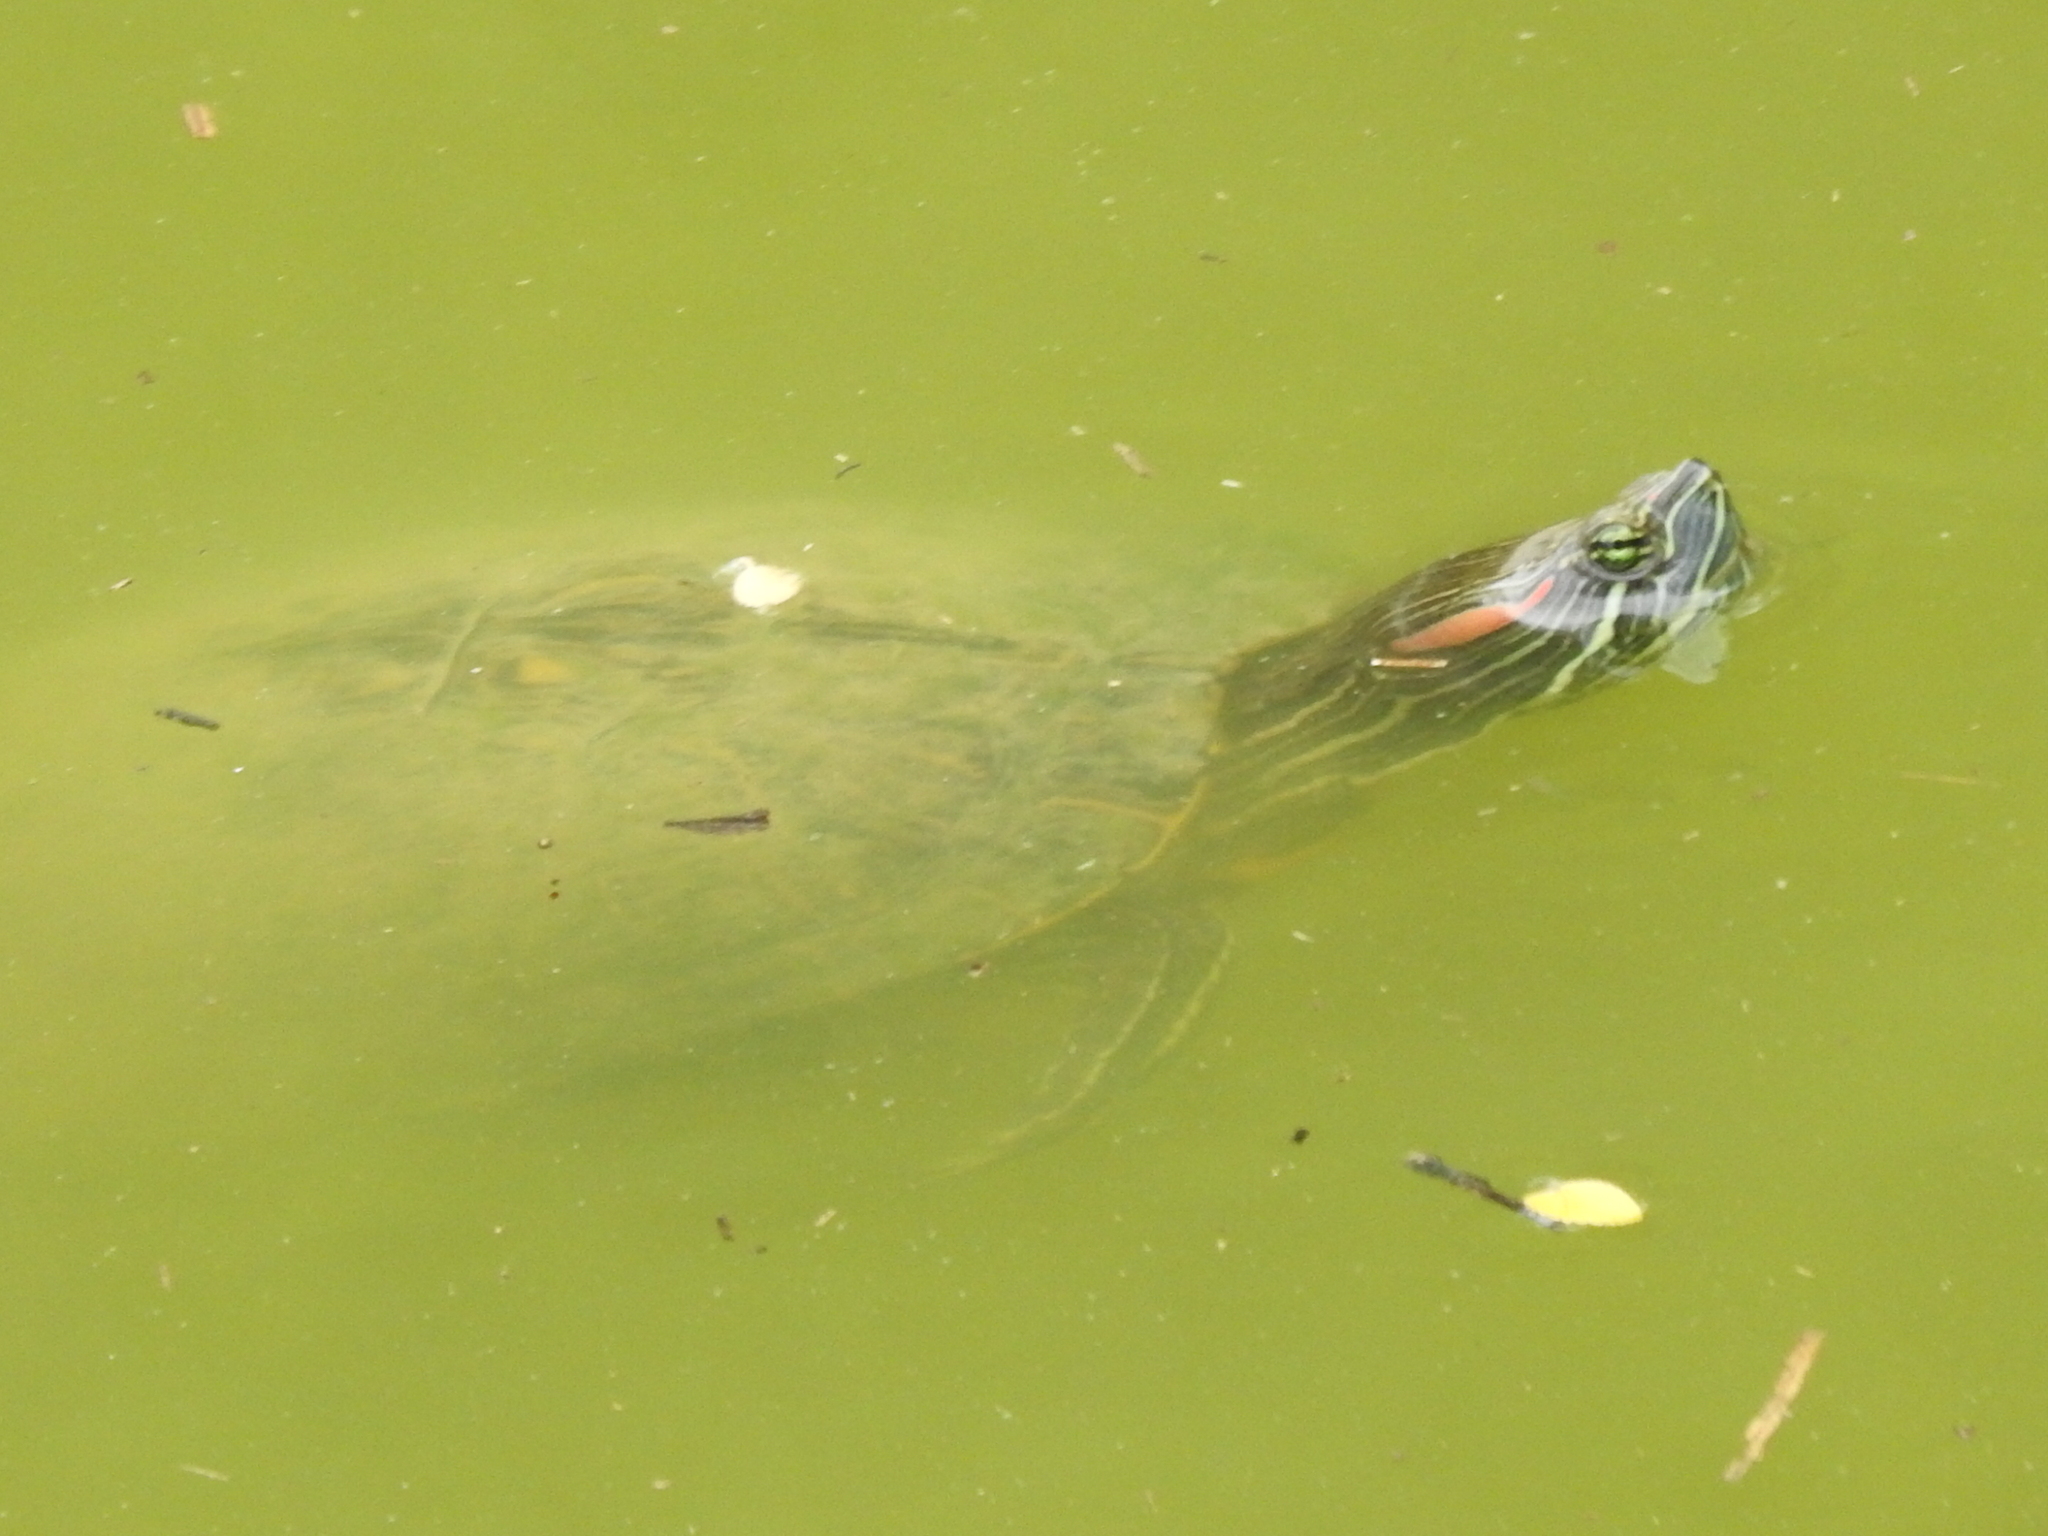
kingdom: Animalia
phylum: Chordata
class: Testudines
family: Emydidae
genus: Trachemys
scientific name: Trachemys scripta
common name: Slider
